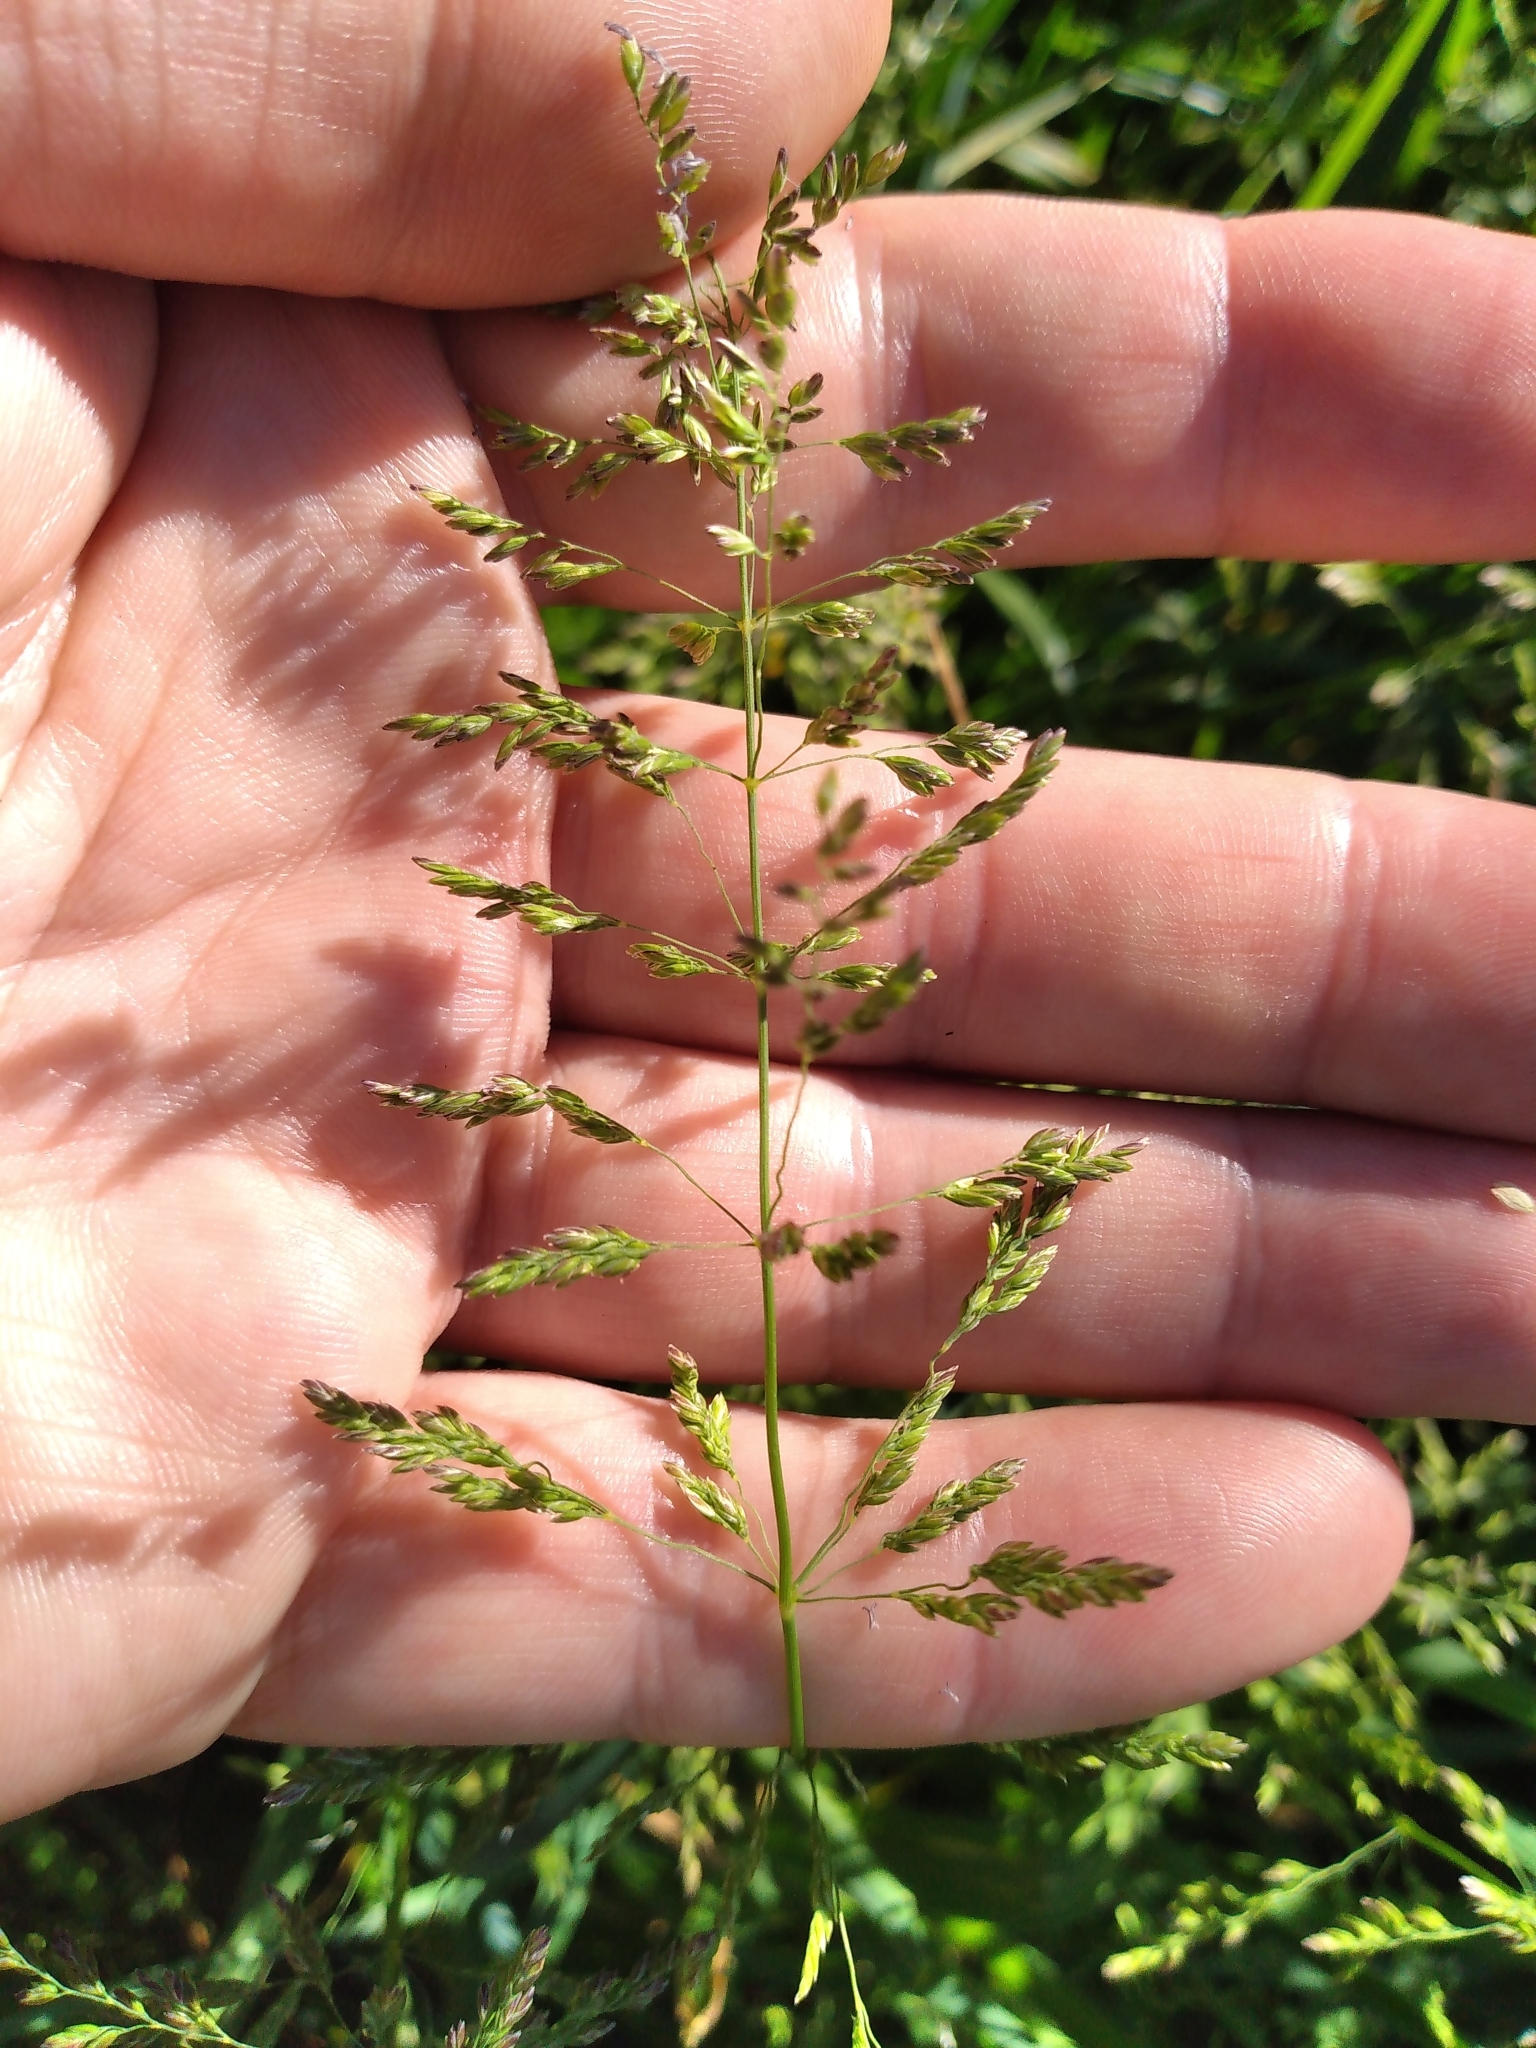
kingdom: Plantae
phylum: Tracheophyta
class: Liliopsida
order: Poales
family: Poaceae
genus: Poa
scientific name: Poa trivialis
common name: Rough bluegrass
